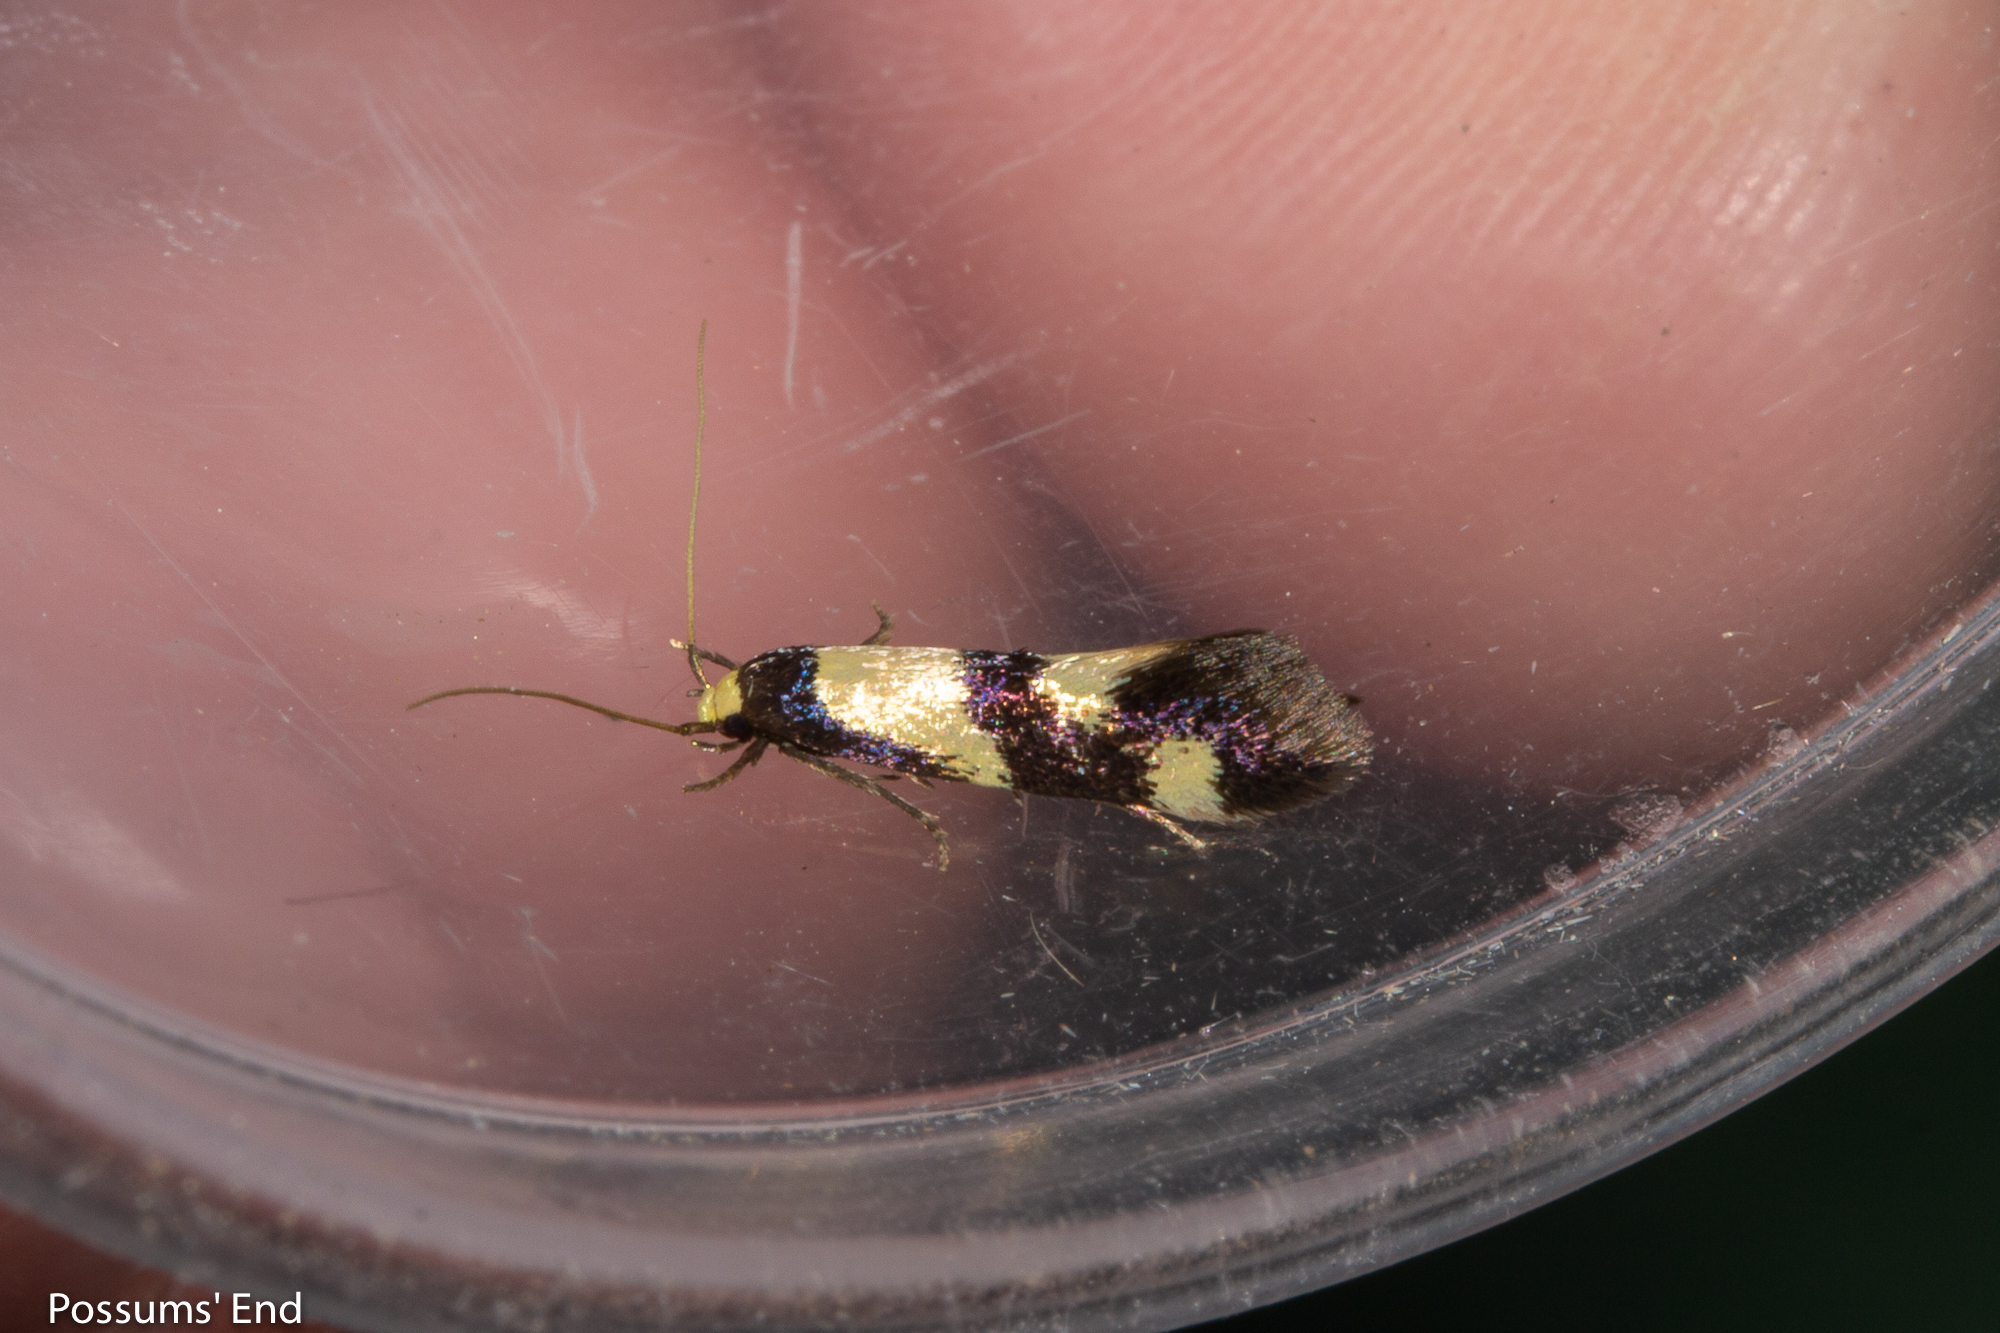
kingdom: Animalia
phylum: Arthropoda
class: Insecta
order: Lepidoptera
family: Tineidae
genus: Opogona
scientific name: Opogona comptella
